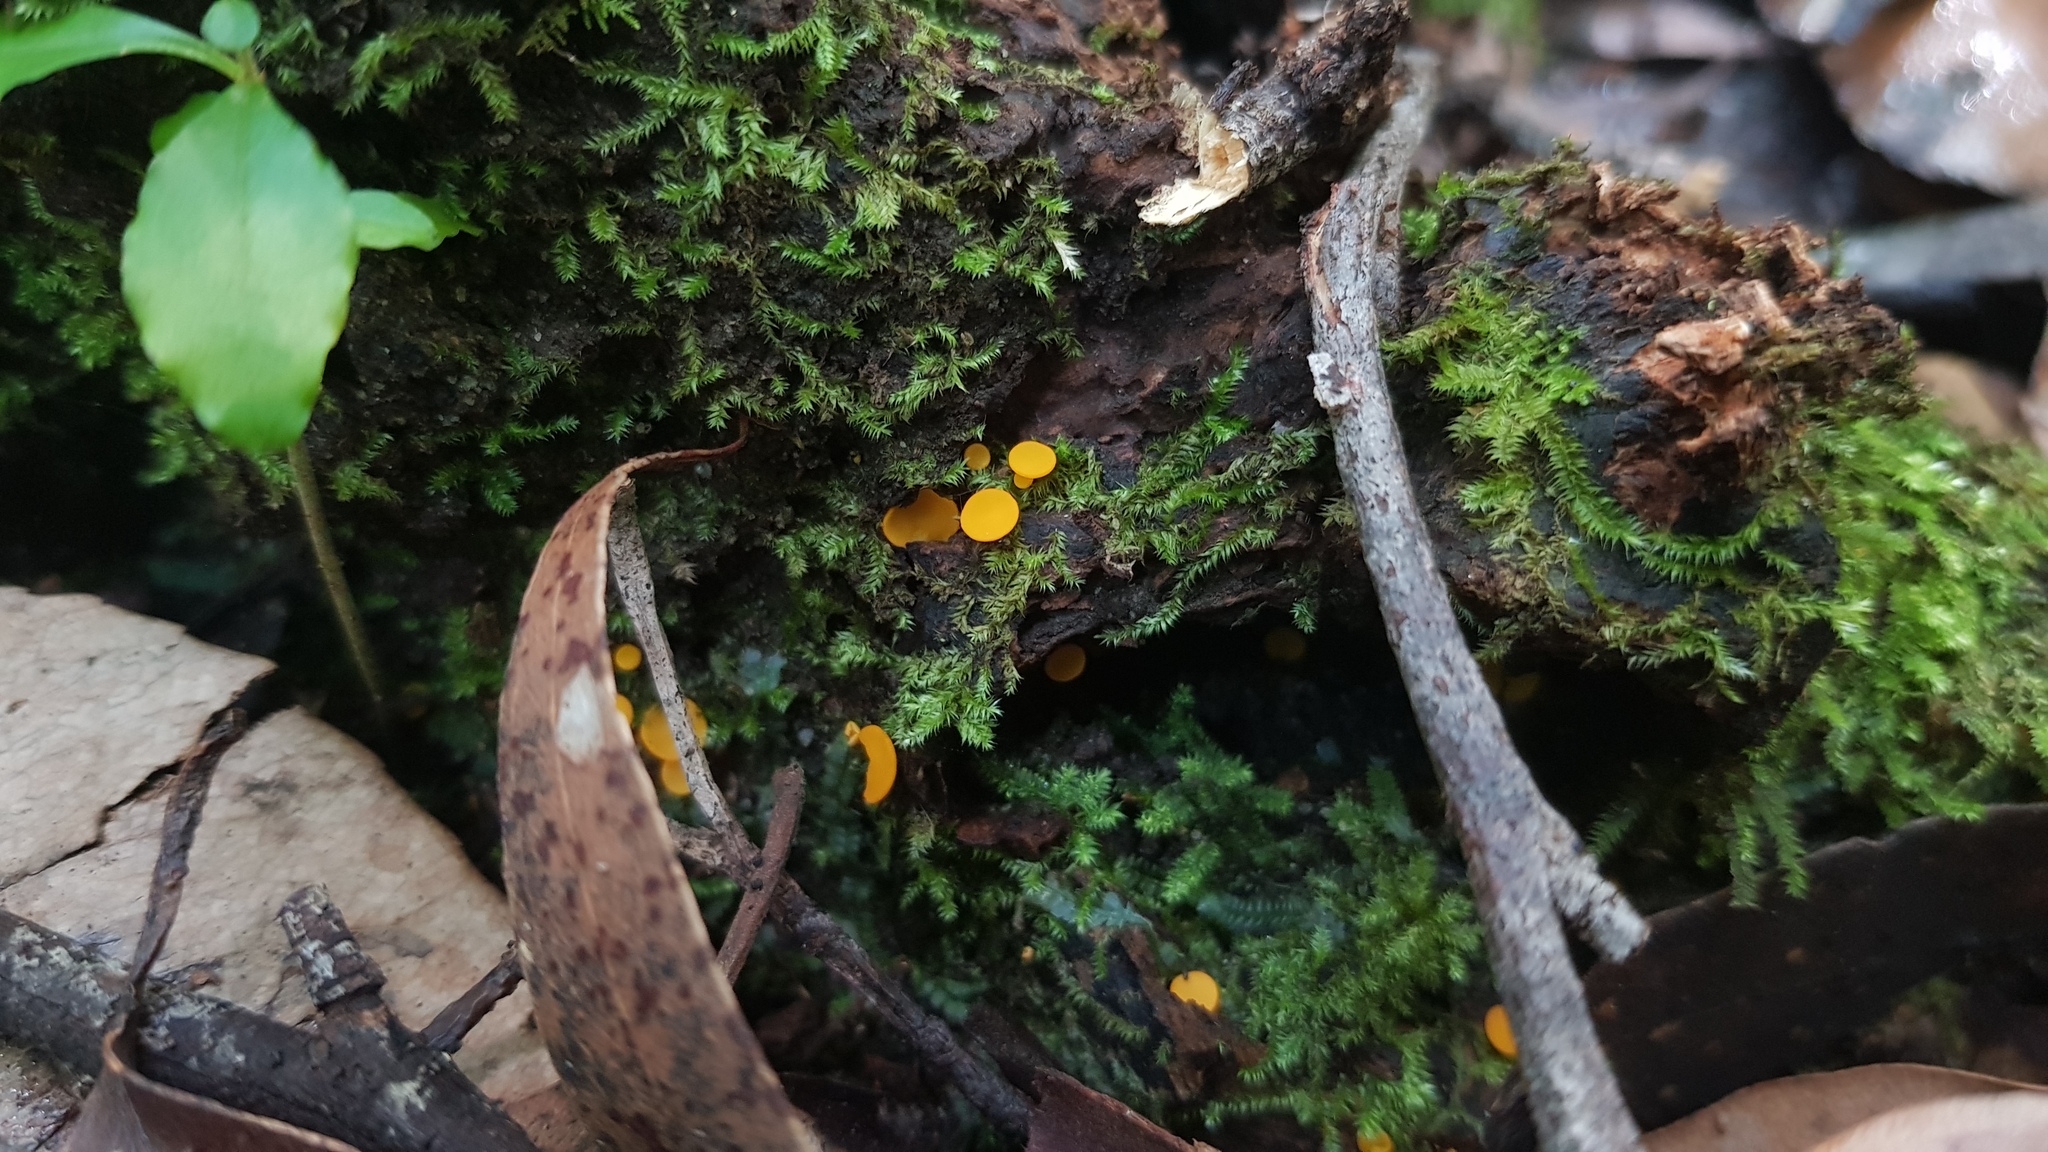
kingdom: Fungi
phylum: Ascomycota
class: Leotiomycetes
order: Helotiales
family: Helotiaceae
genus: Phaeohelotium
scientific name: Phaeohelotium baileyanum
